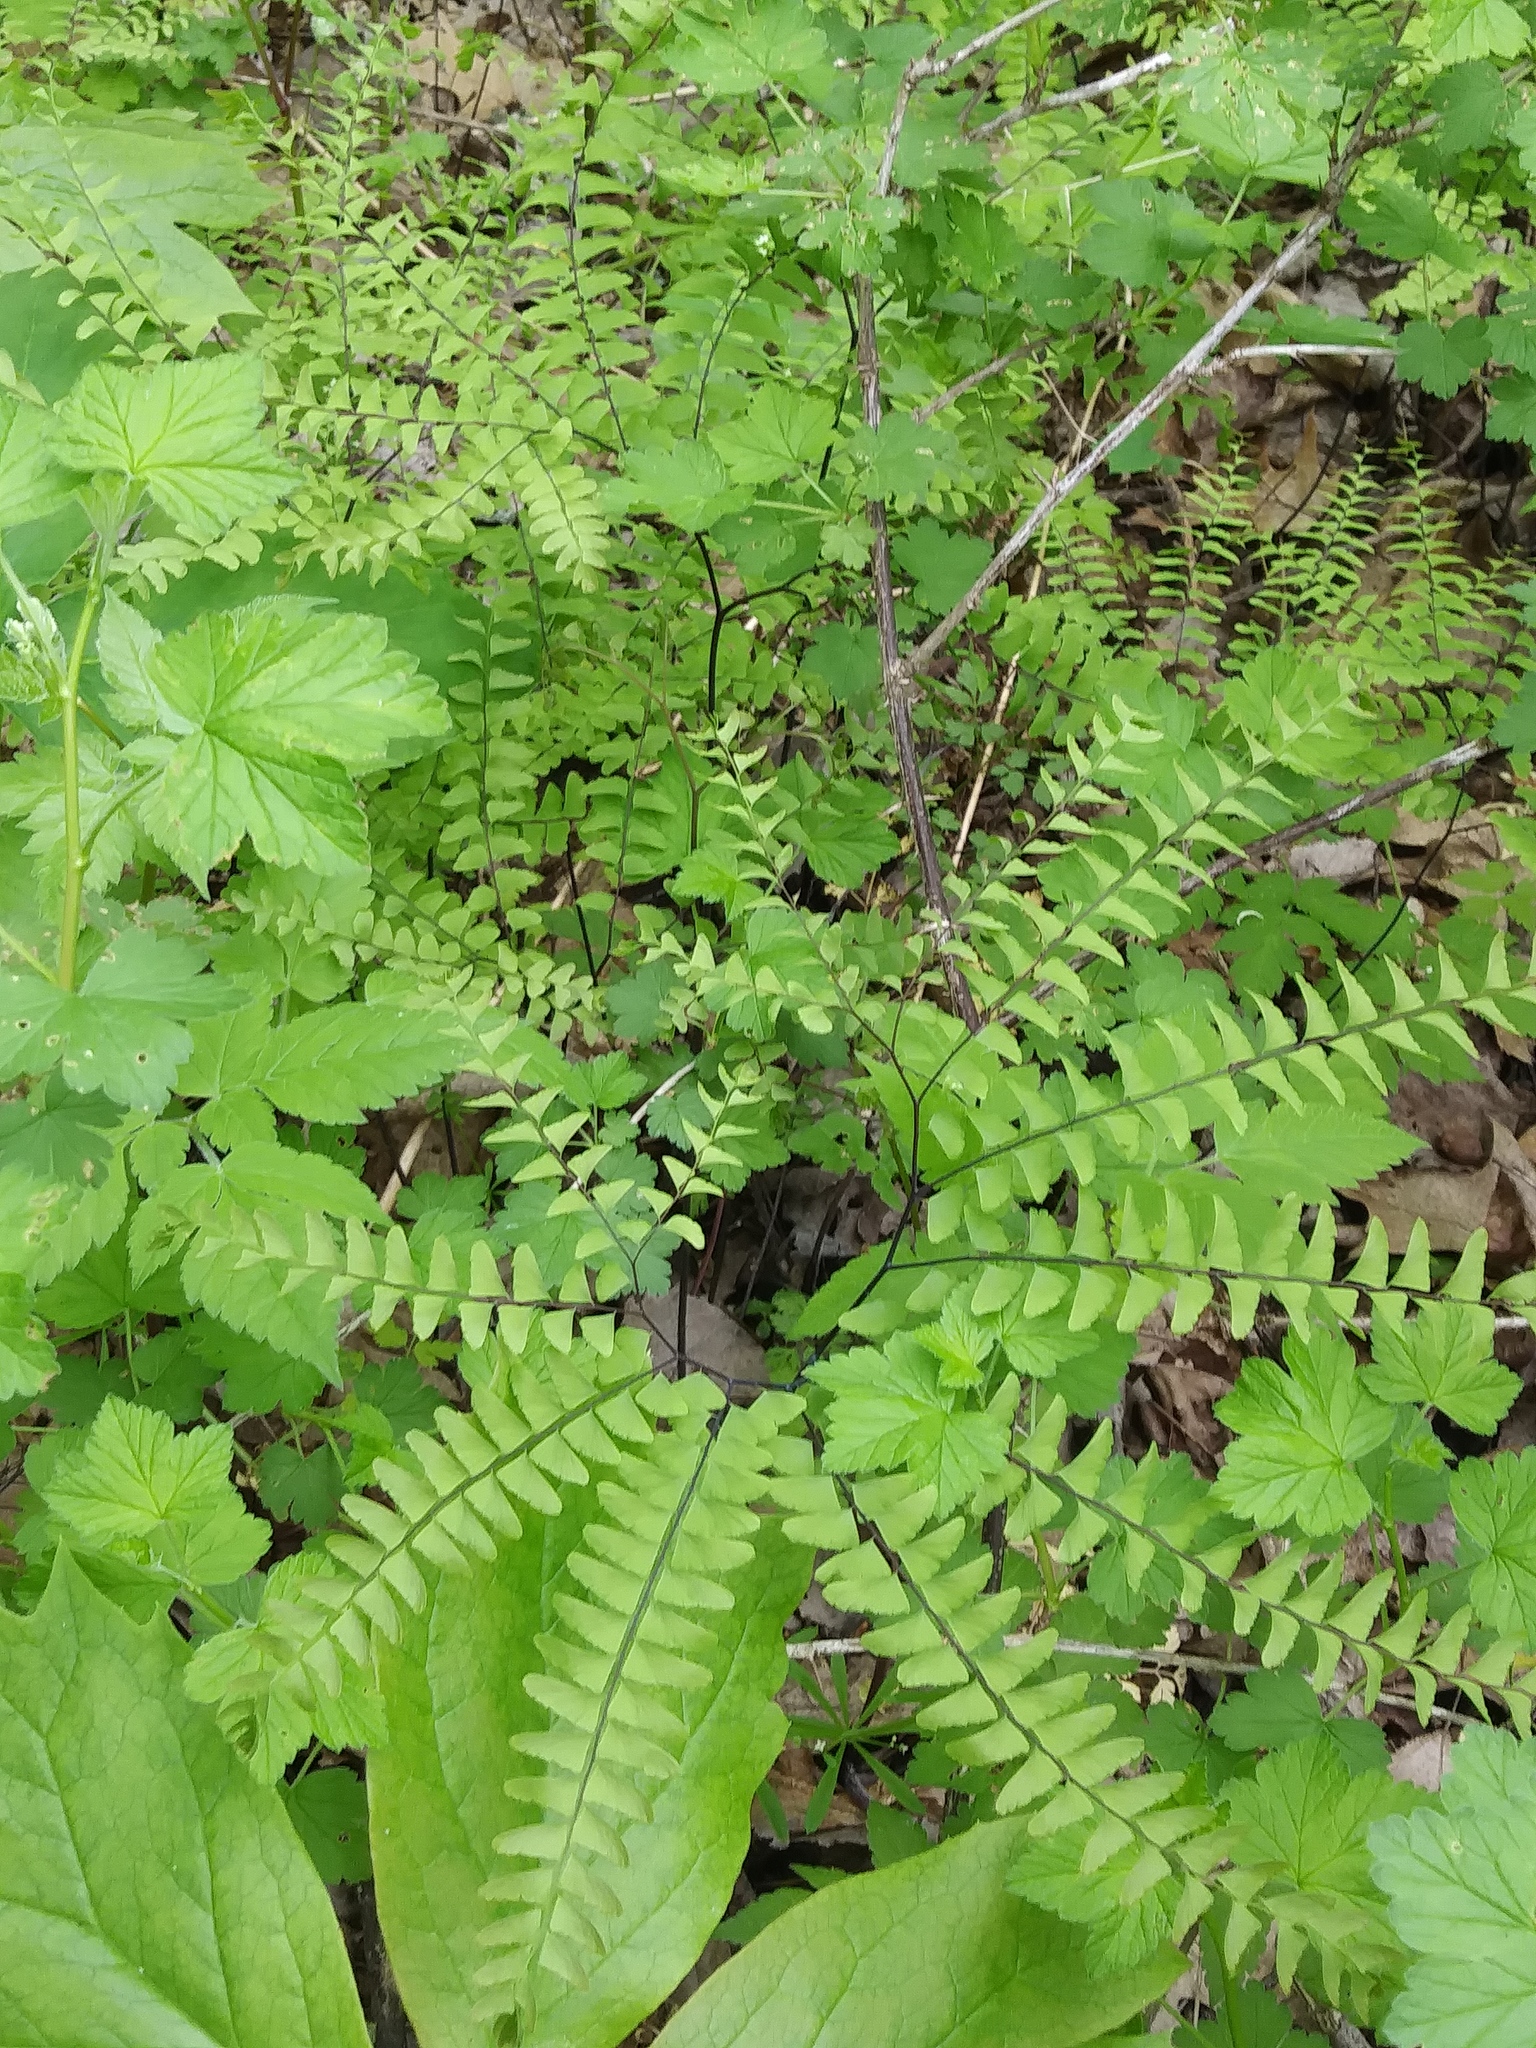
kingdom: Plantae
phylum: Tracheophyta
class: Polypodiopsida
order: Polypodiales
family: Pteridaceae
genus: Adiantum
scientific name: Adiantum pedatum
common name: Five-finger fern
